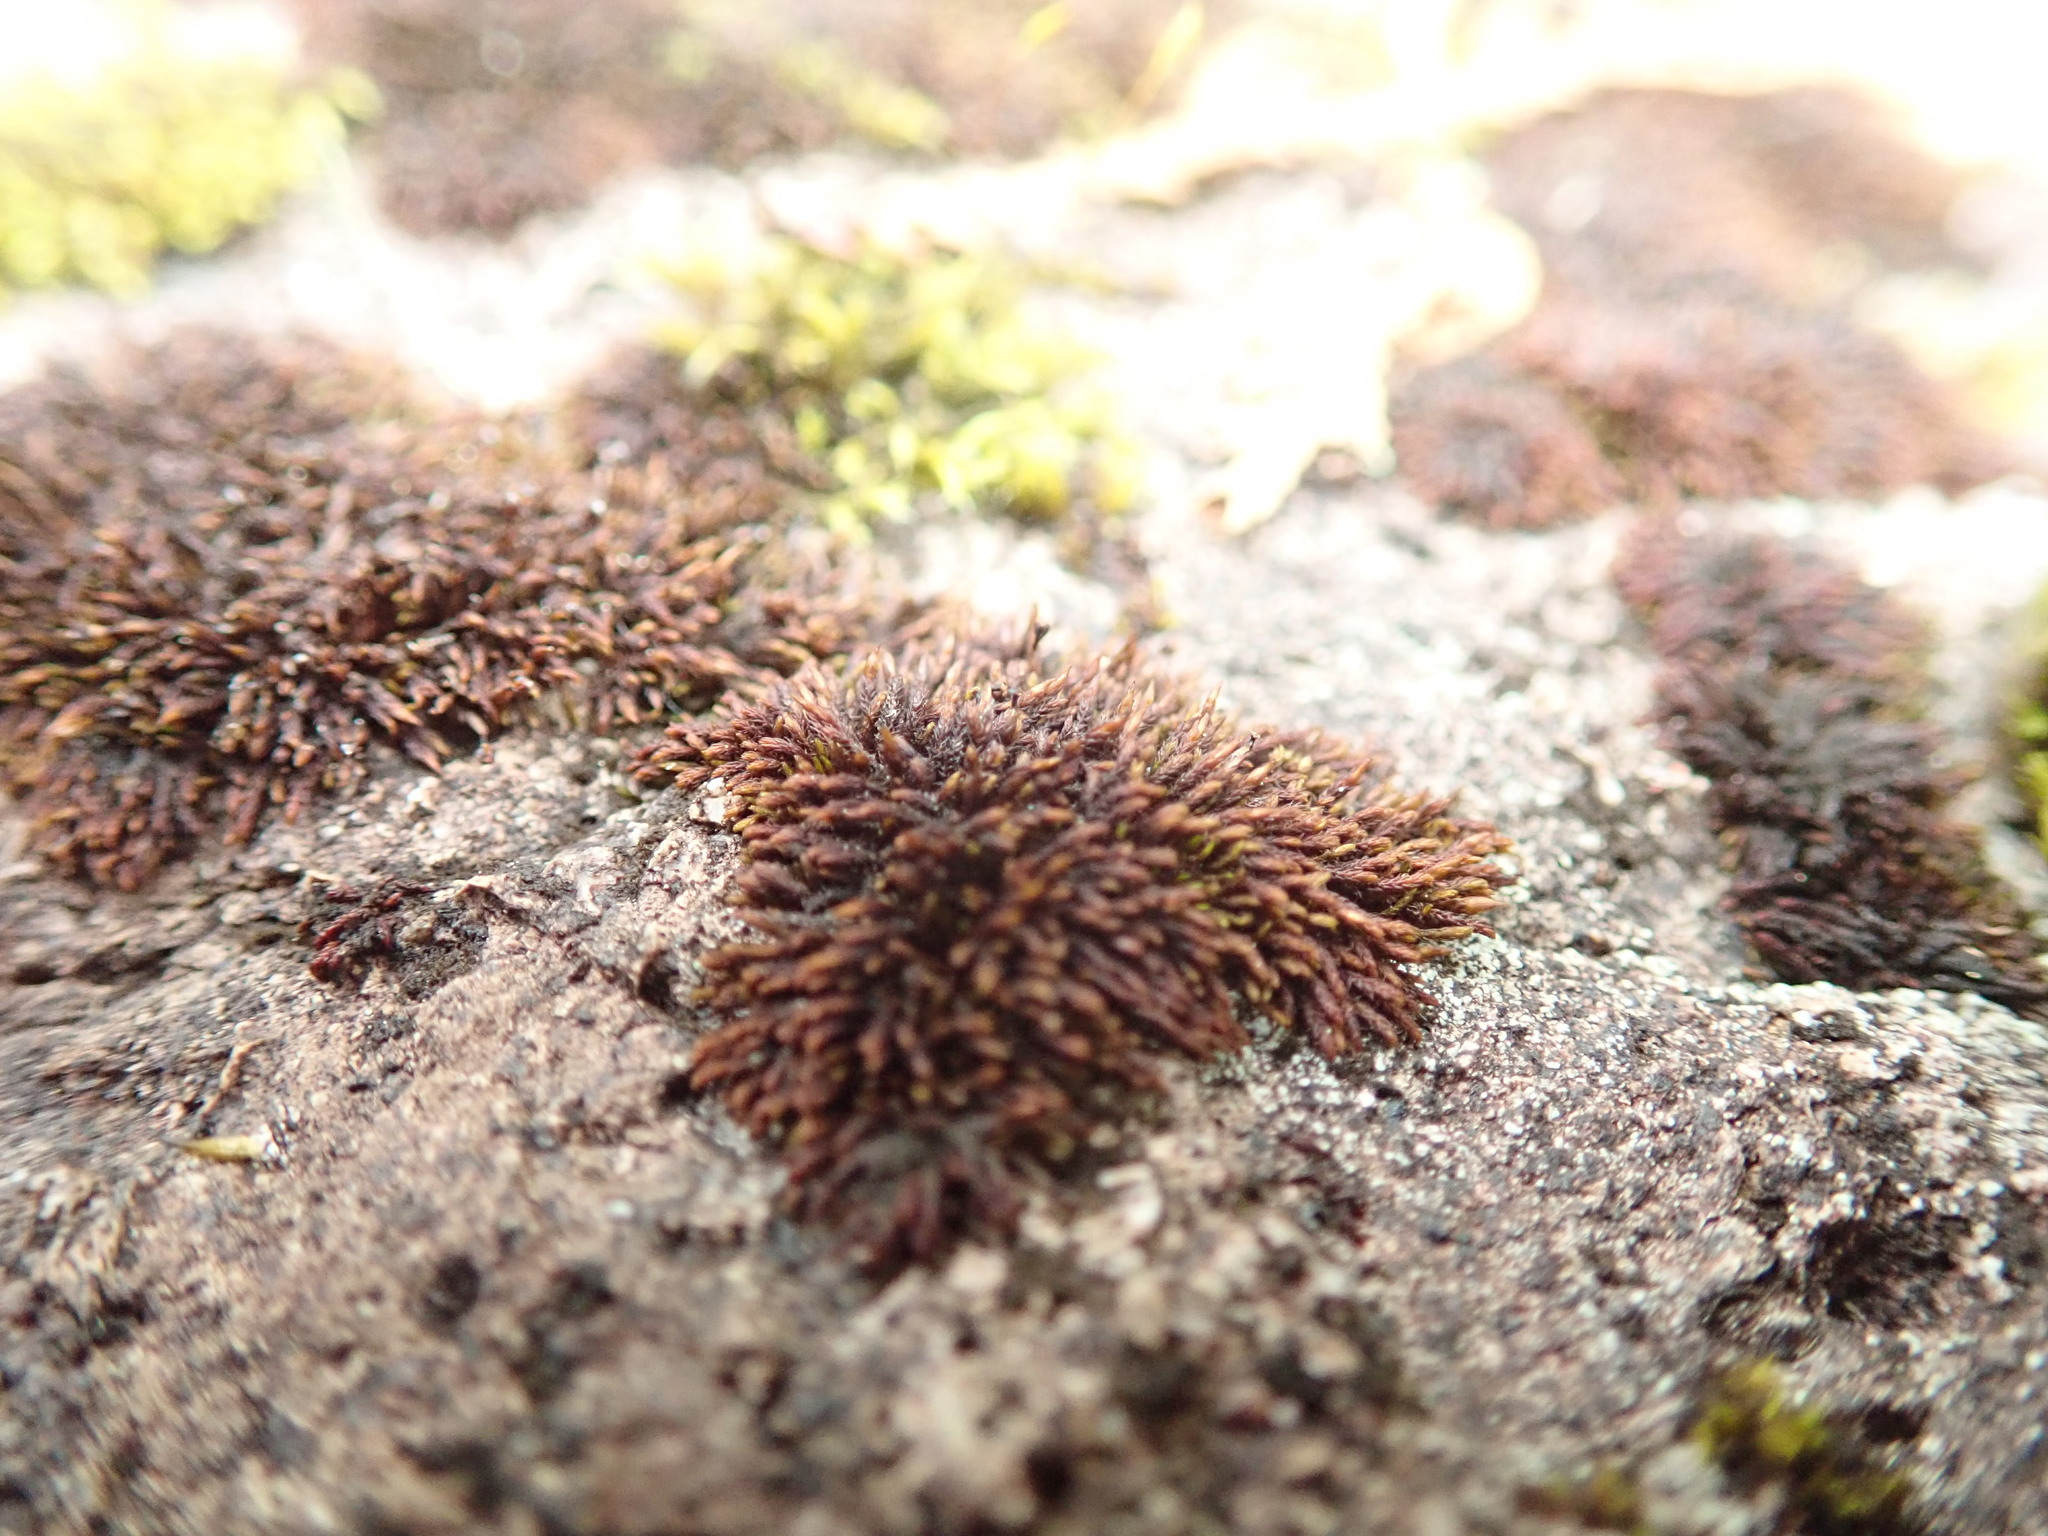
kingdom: Plantae
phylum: Bryophyta
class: Andreaeopsida
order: Andreaeales
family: Andreaeaceae
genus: Andreaea
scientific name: Andreaea rupestris
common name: Black rock moss
